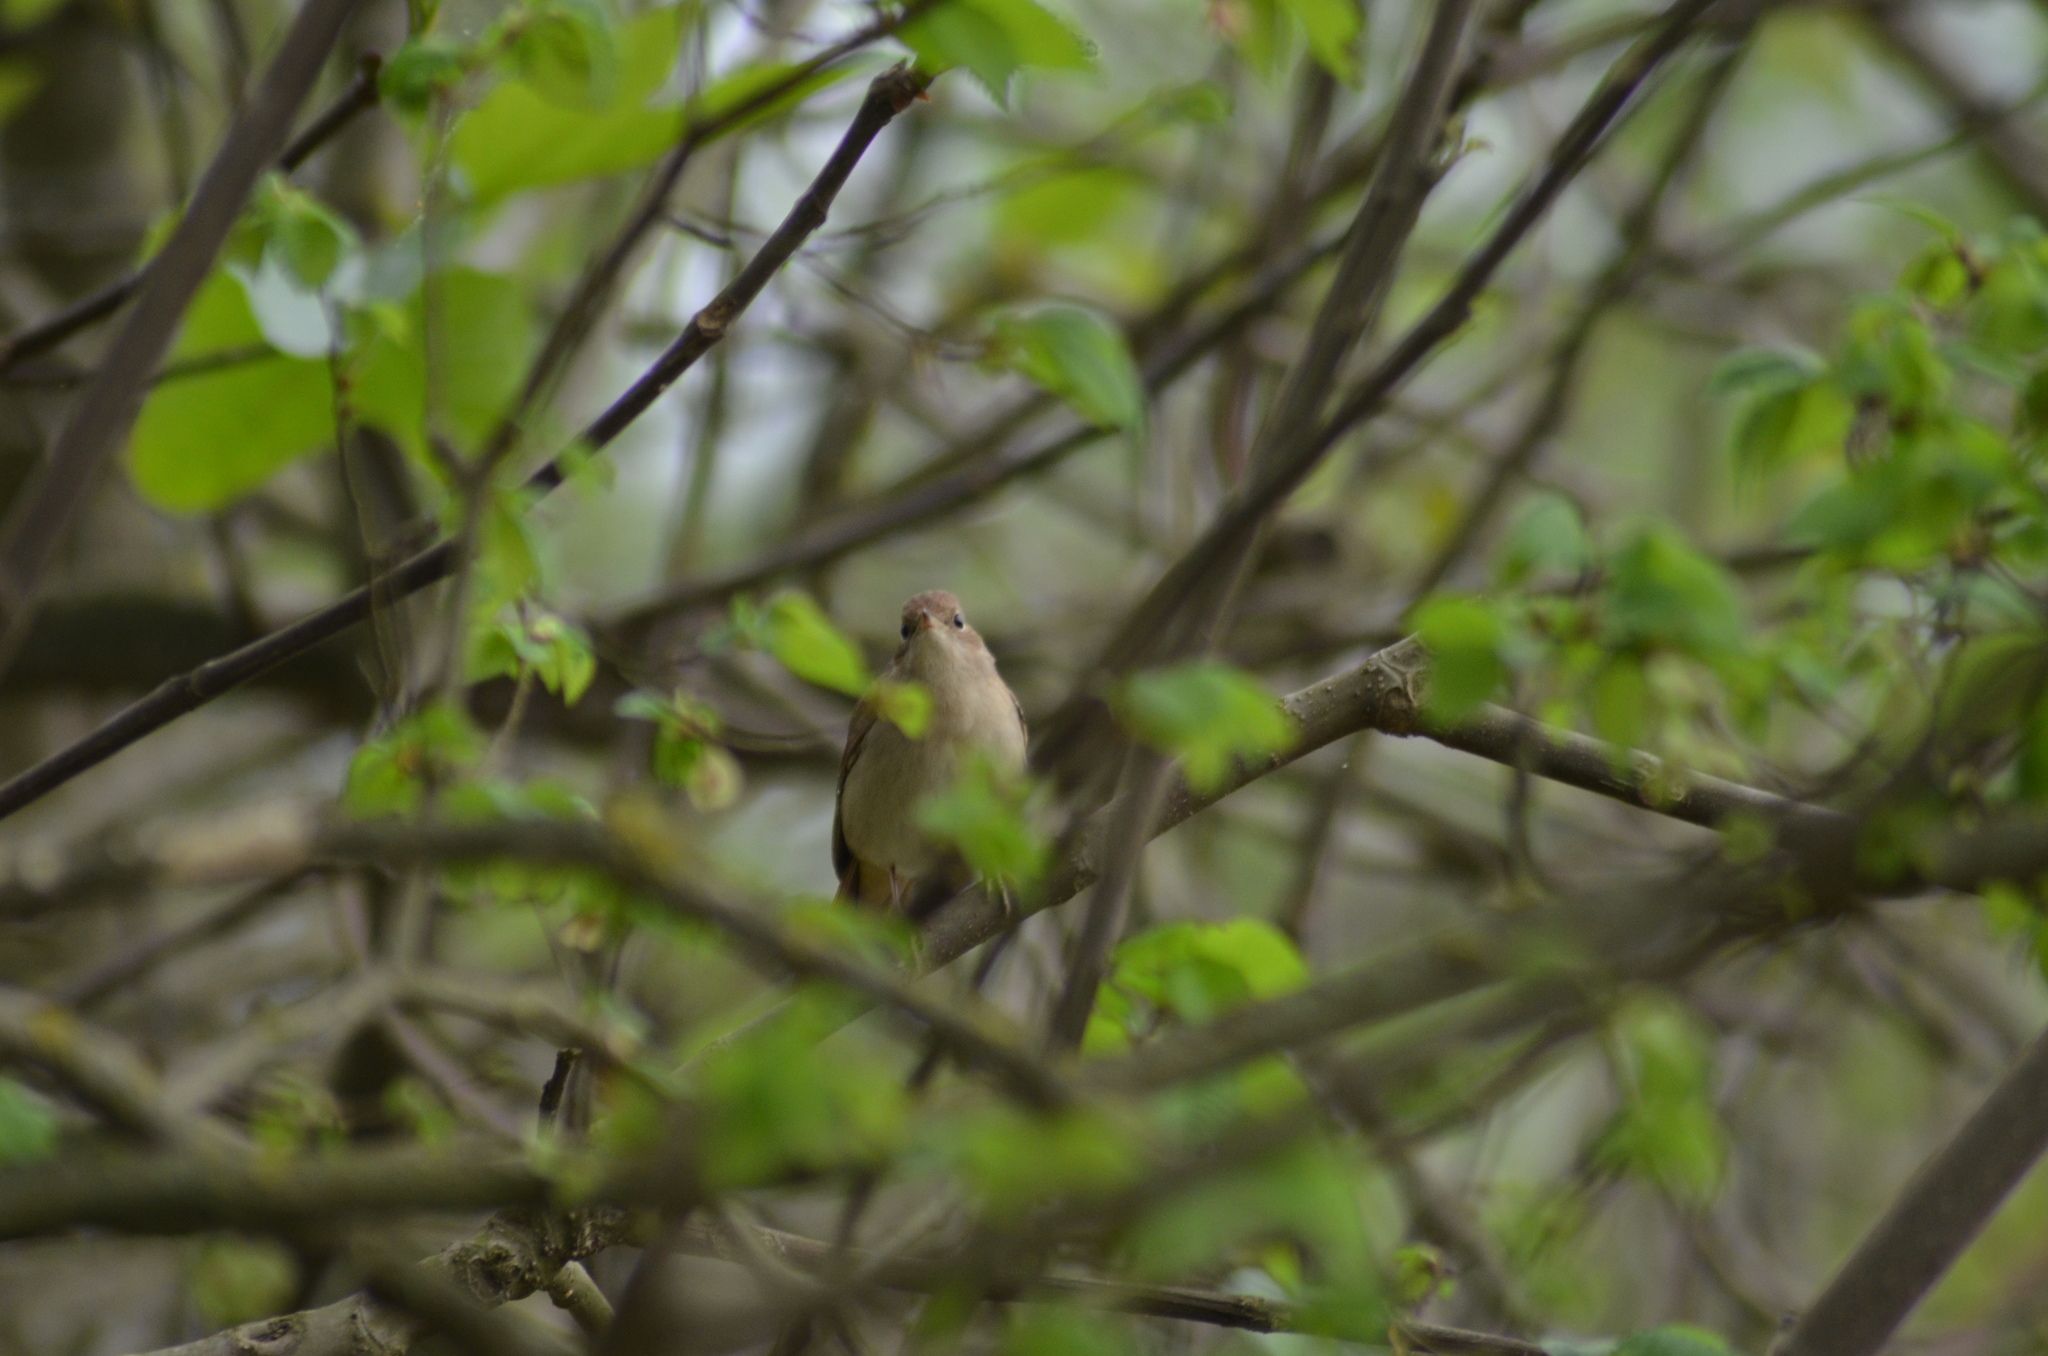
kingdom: Animalia
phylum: Chordata
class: Aves
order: Passeriformes
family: Muscicapidae
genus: Luscinia
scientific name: Luscinia megarhynchos
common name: Common nightingale
